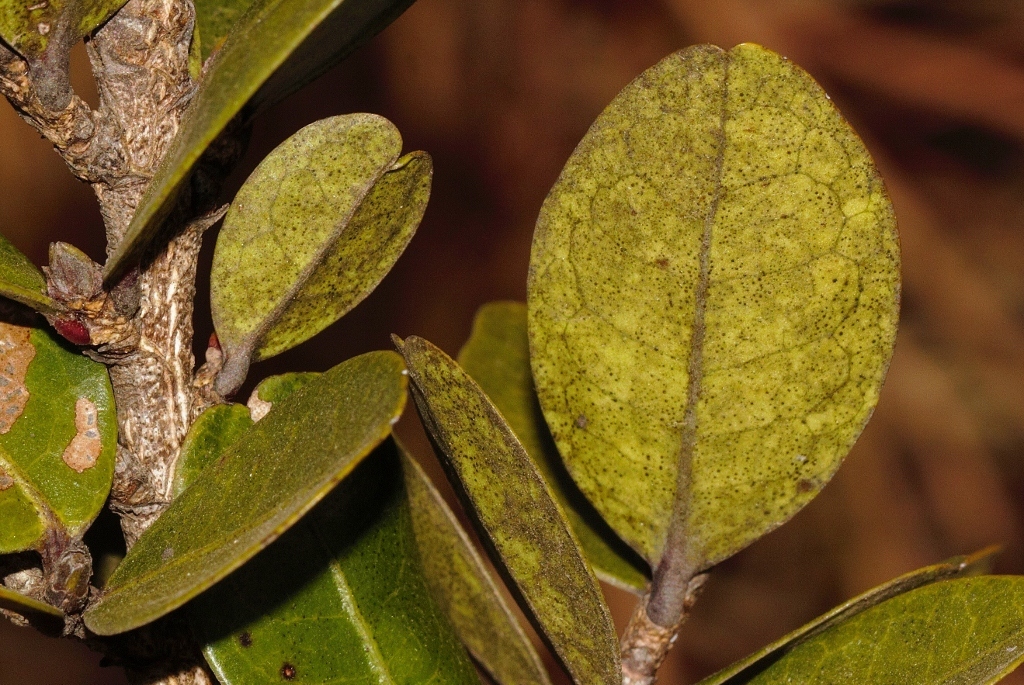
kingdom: Plantae
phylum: Tracheophyta
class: Magnoliopsida
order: Malpighiales
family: Erythroxylaceae
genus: Erythroxylum
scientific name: Erythroxylum emarginatum
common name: African coca-tree
